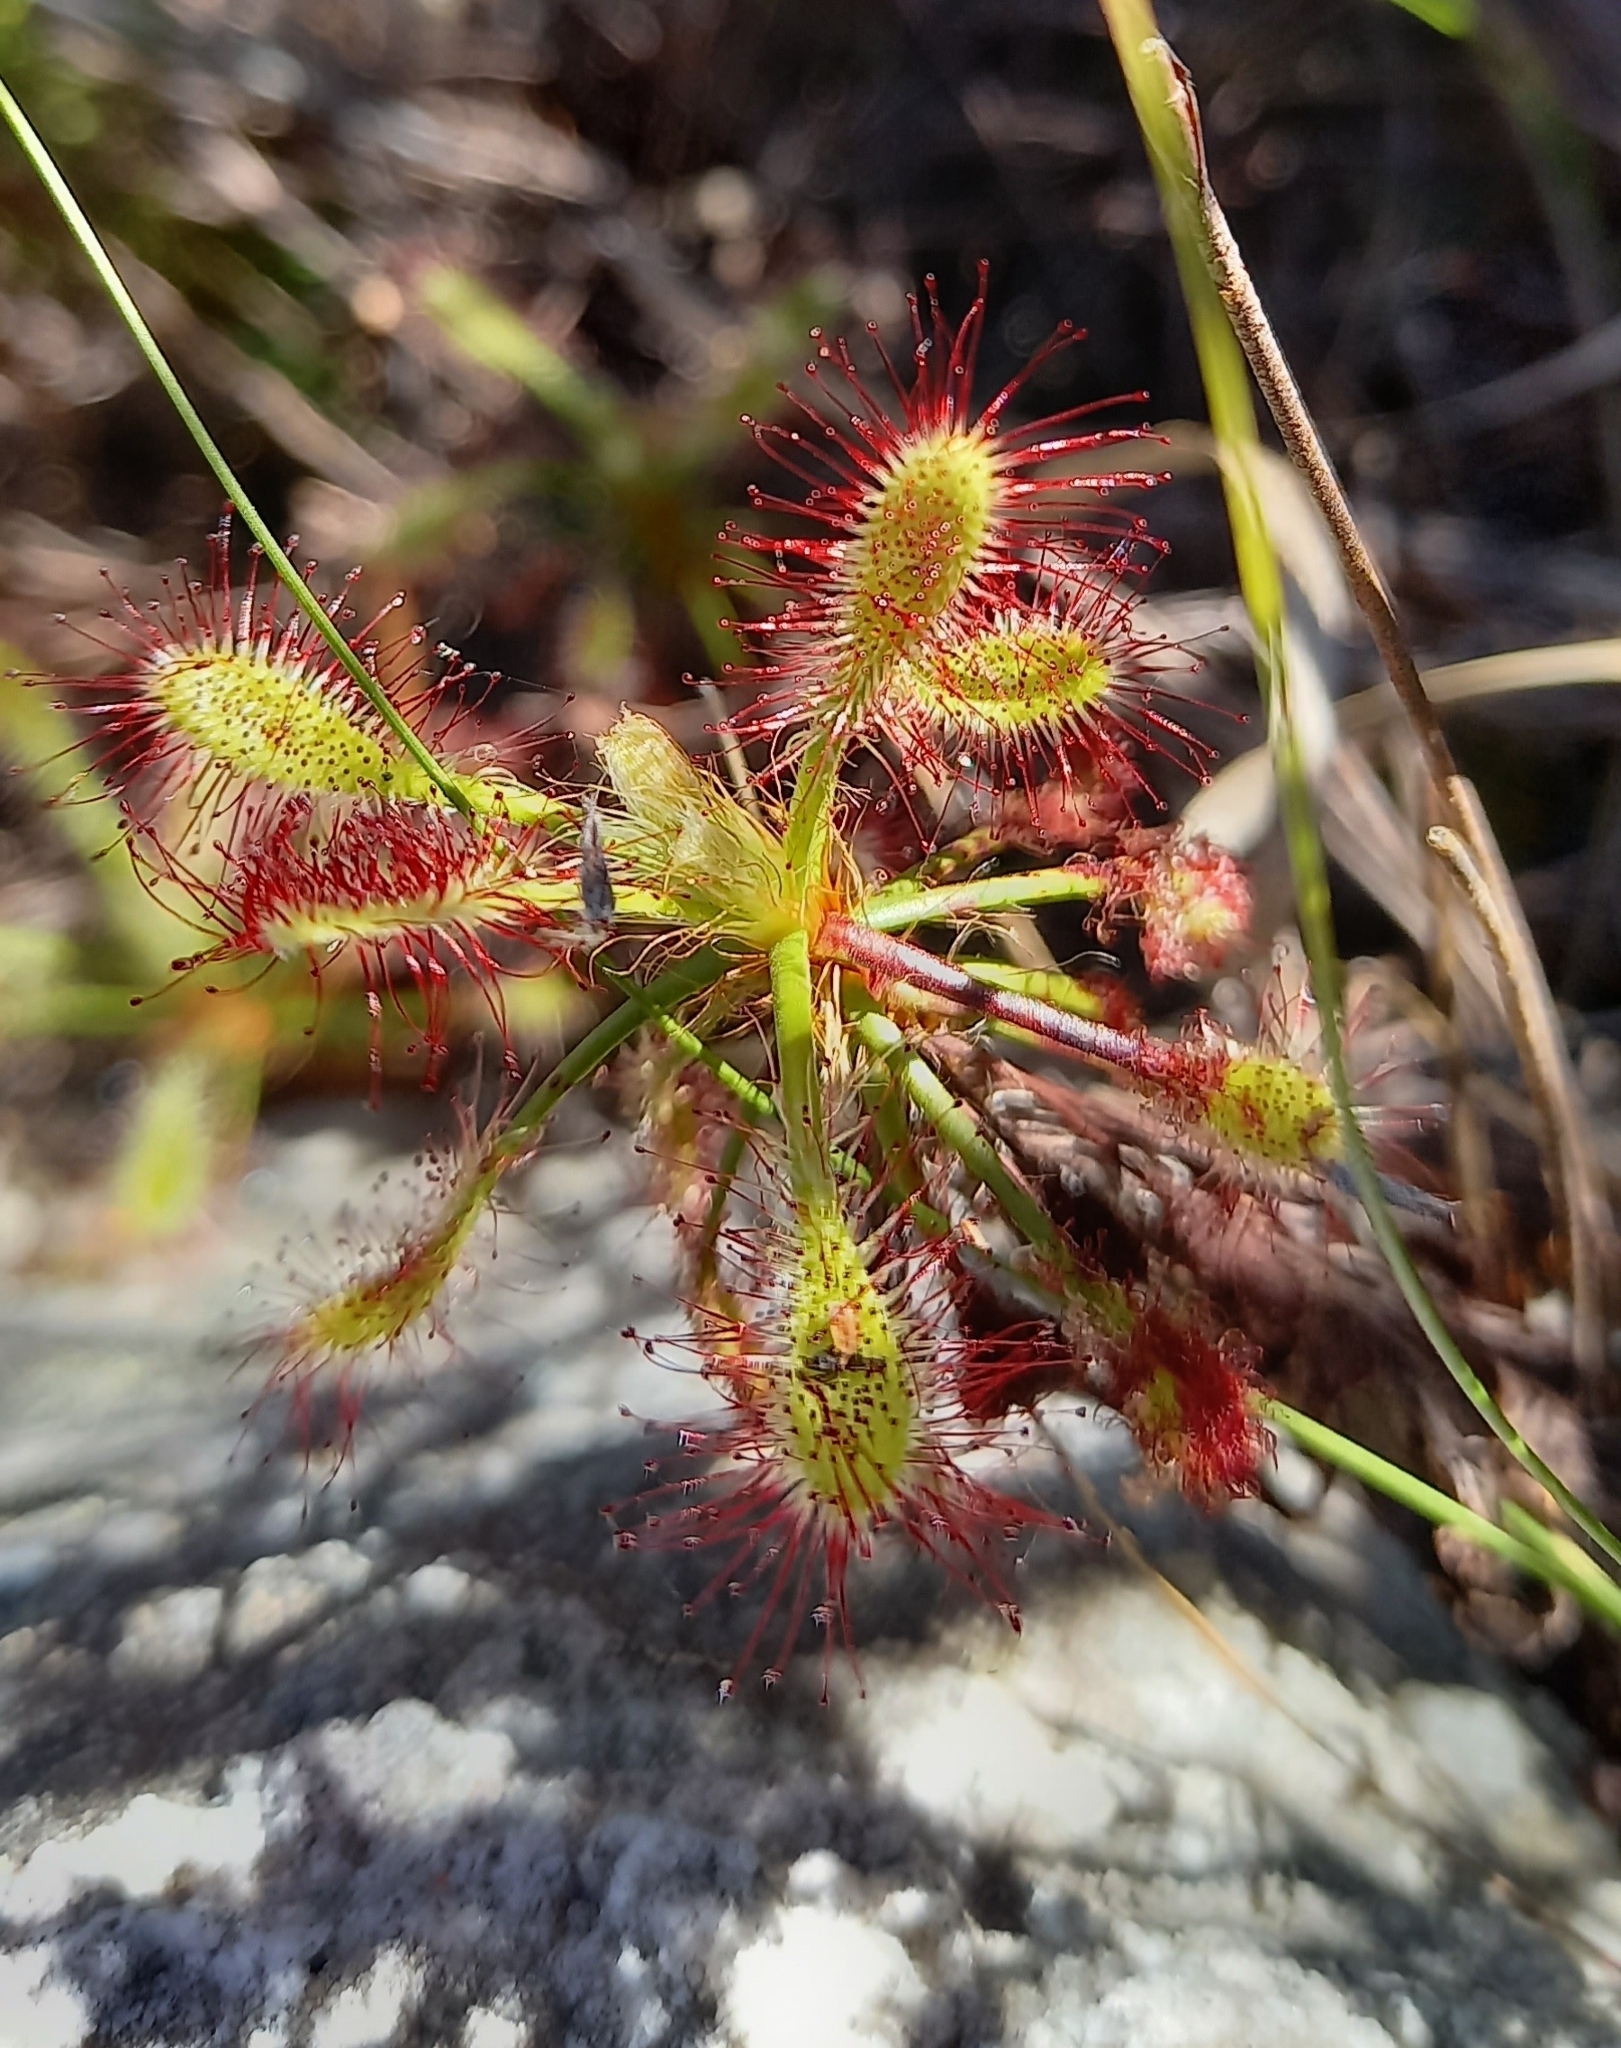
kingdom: Plantae
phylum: Tracheophyta
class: Magnoliopsida
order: Caryophyllales
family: Droseraceae
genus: Drosera
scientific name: Drosera glabripes
